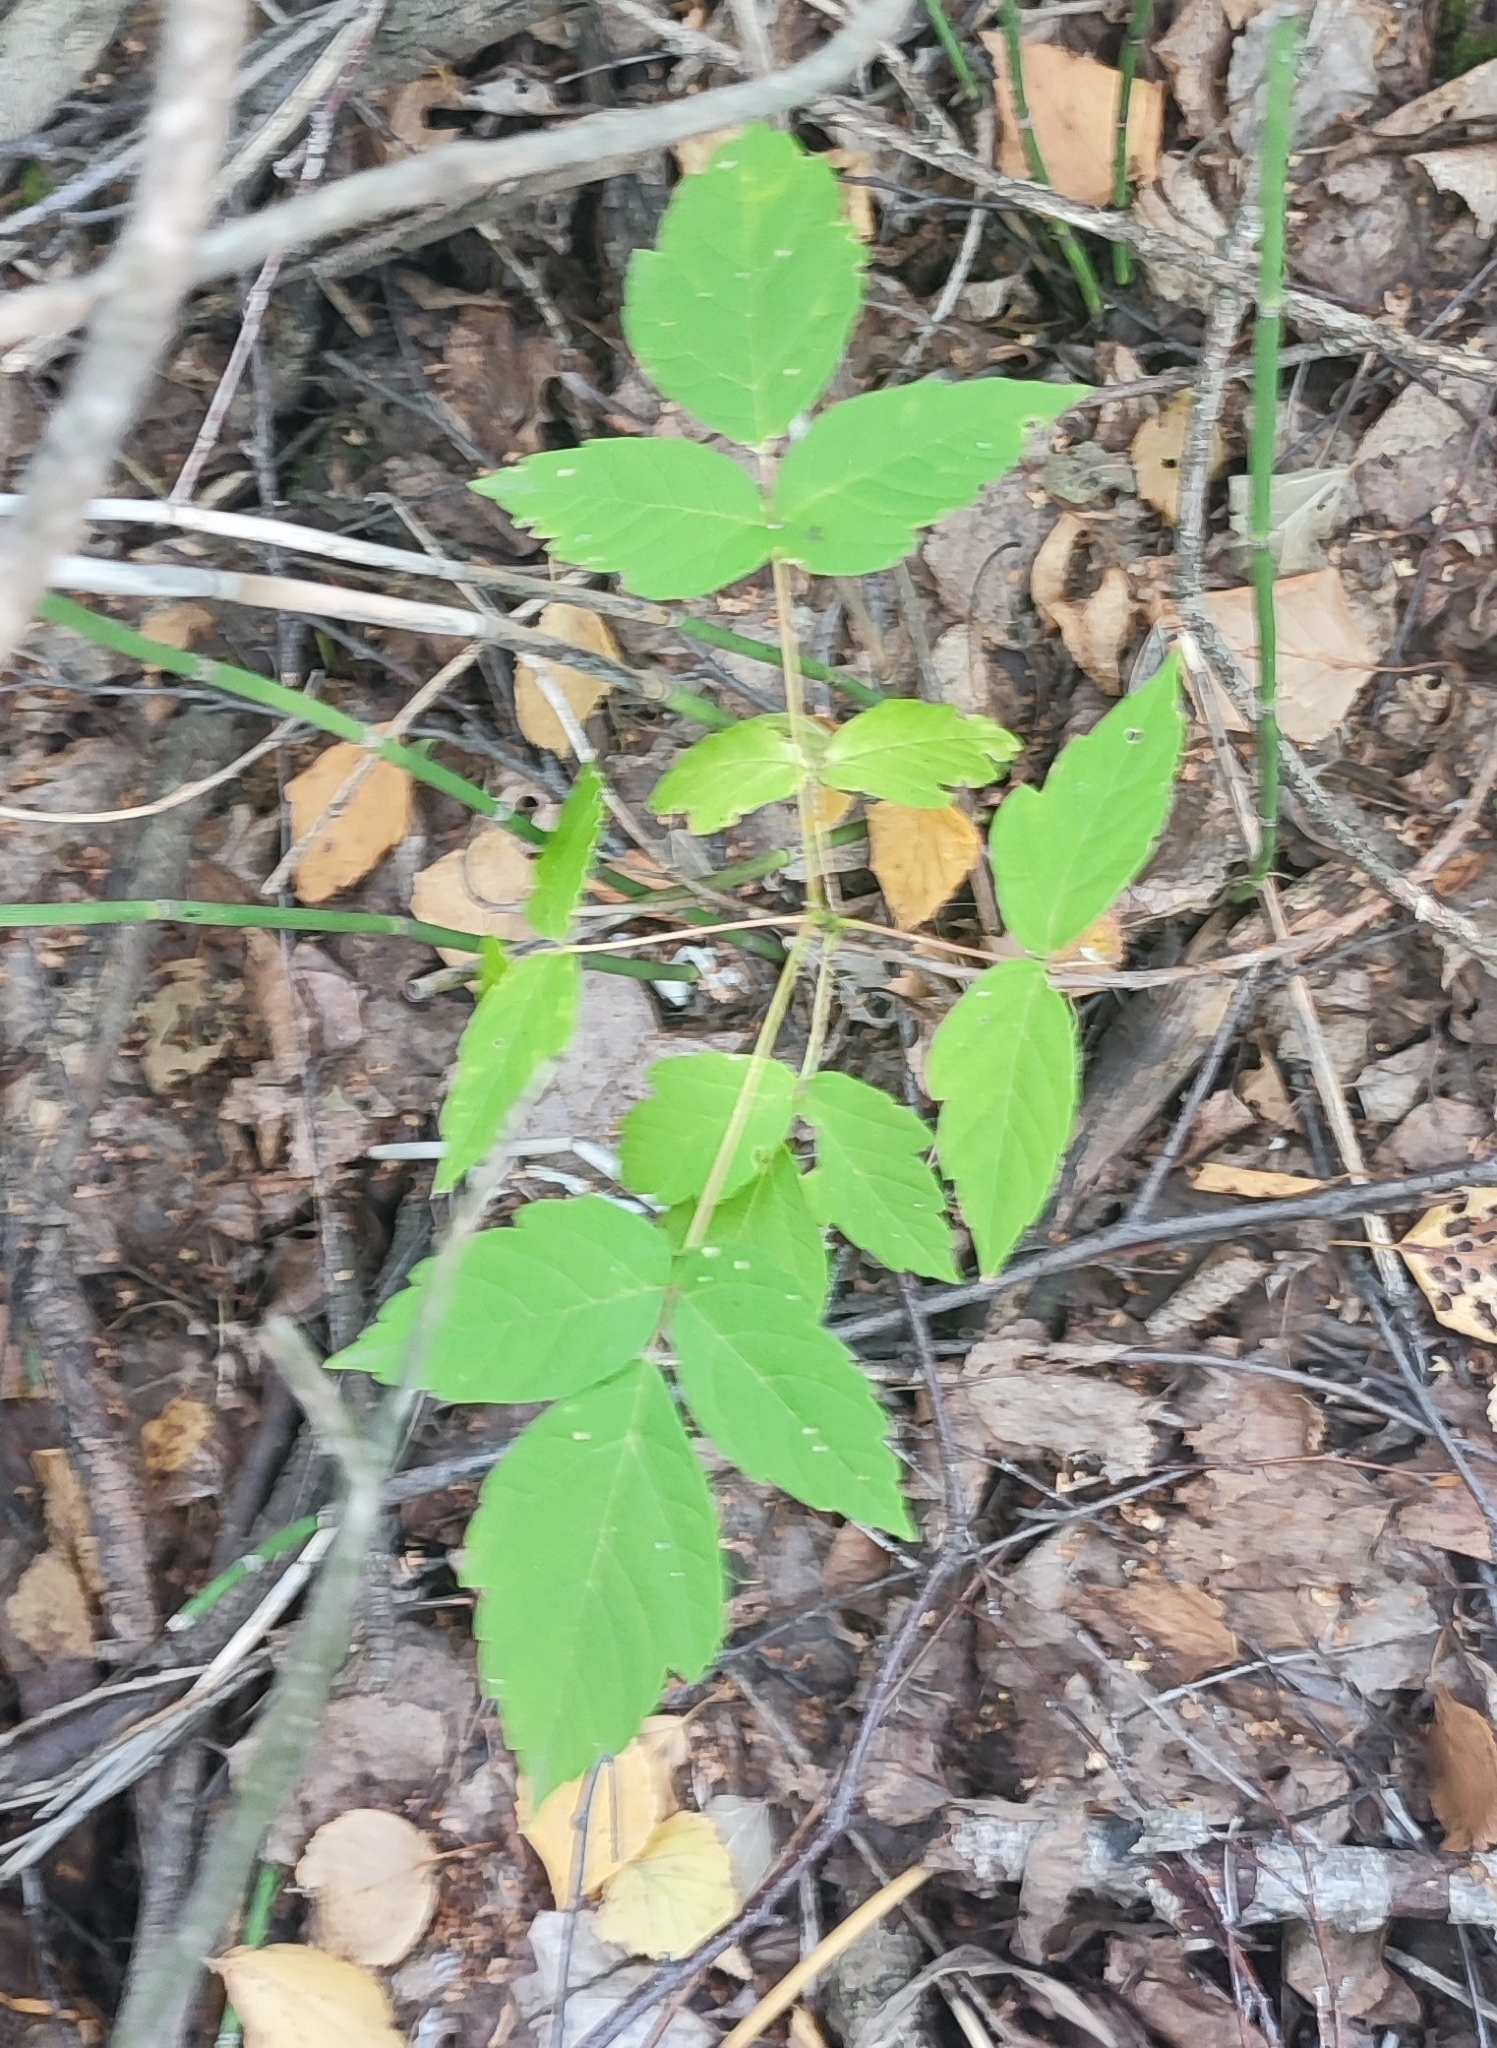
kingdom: Plantae
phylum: Tracheophyta
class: Magnoliopsida
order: Sapindales
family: Sapindaceae
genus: Acer
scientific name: Acer negundo
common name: Ashleaf maple
